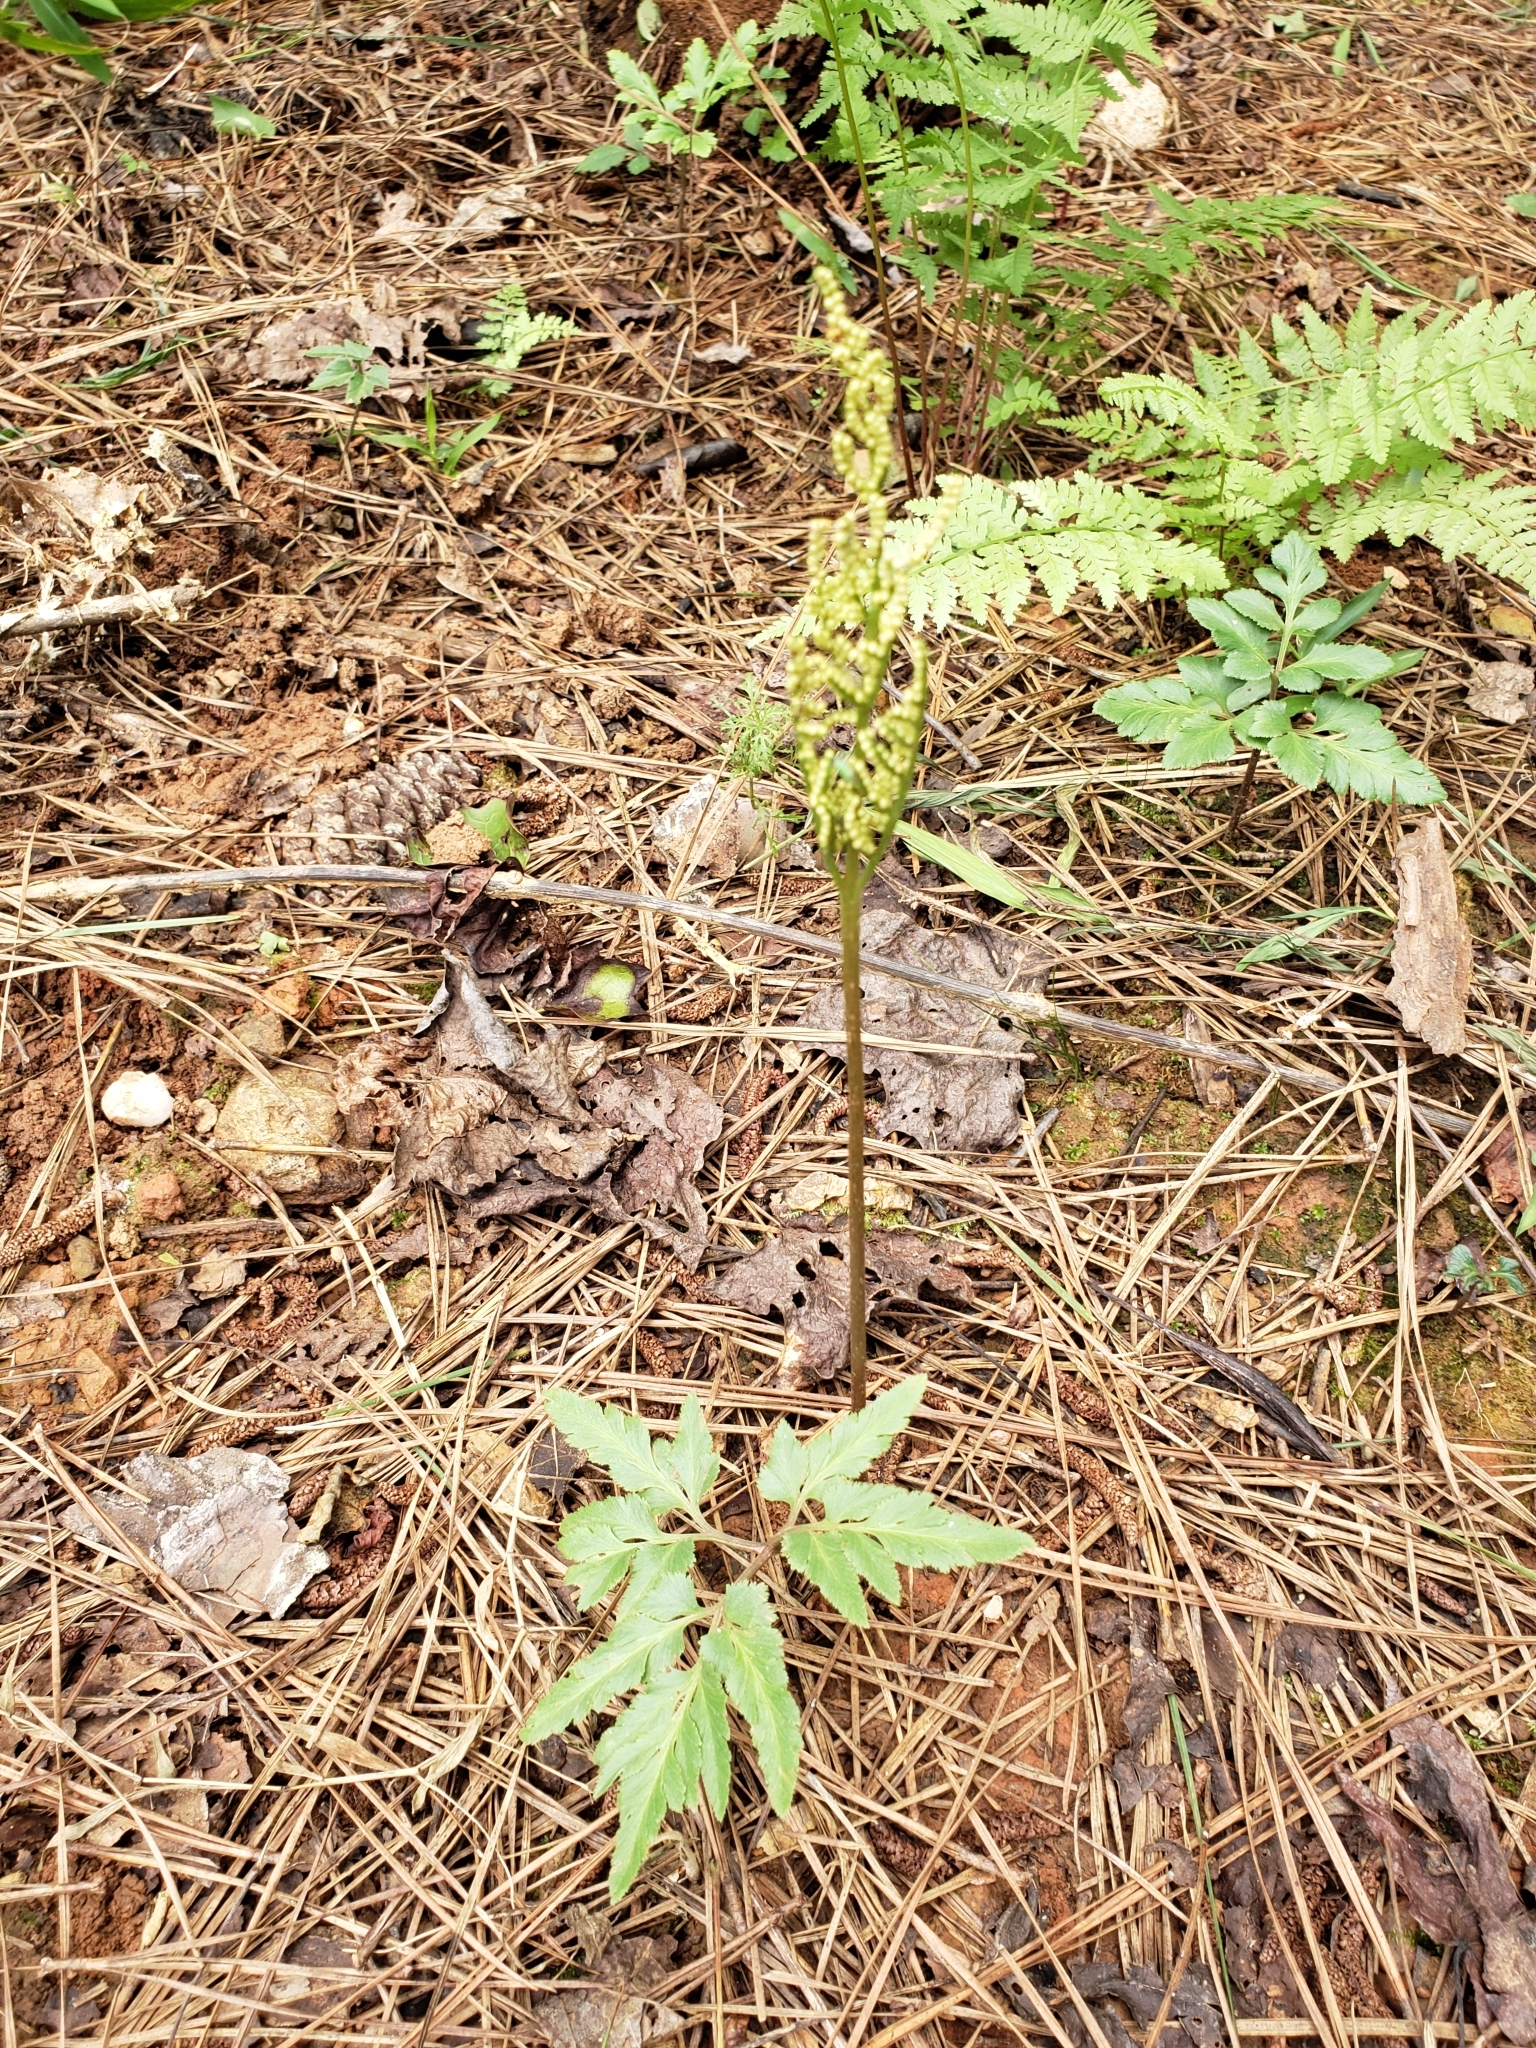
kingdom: Plantae
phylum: Tracheophyta
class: Polypodiopsida
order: Ophioglossales
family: Ophioglossaceae
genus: Sceptridium
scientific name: Sceptridium dissectum
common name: Cut-leaved grapefern
